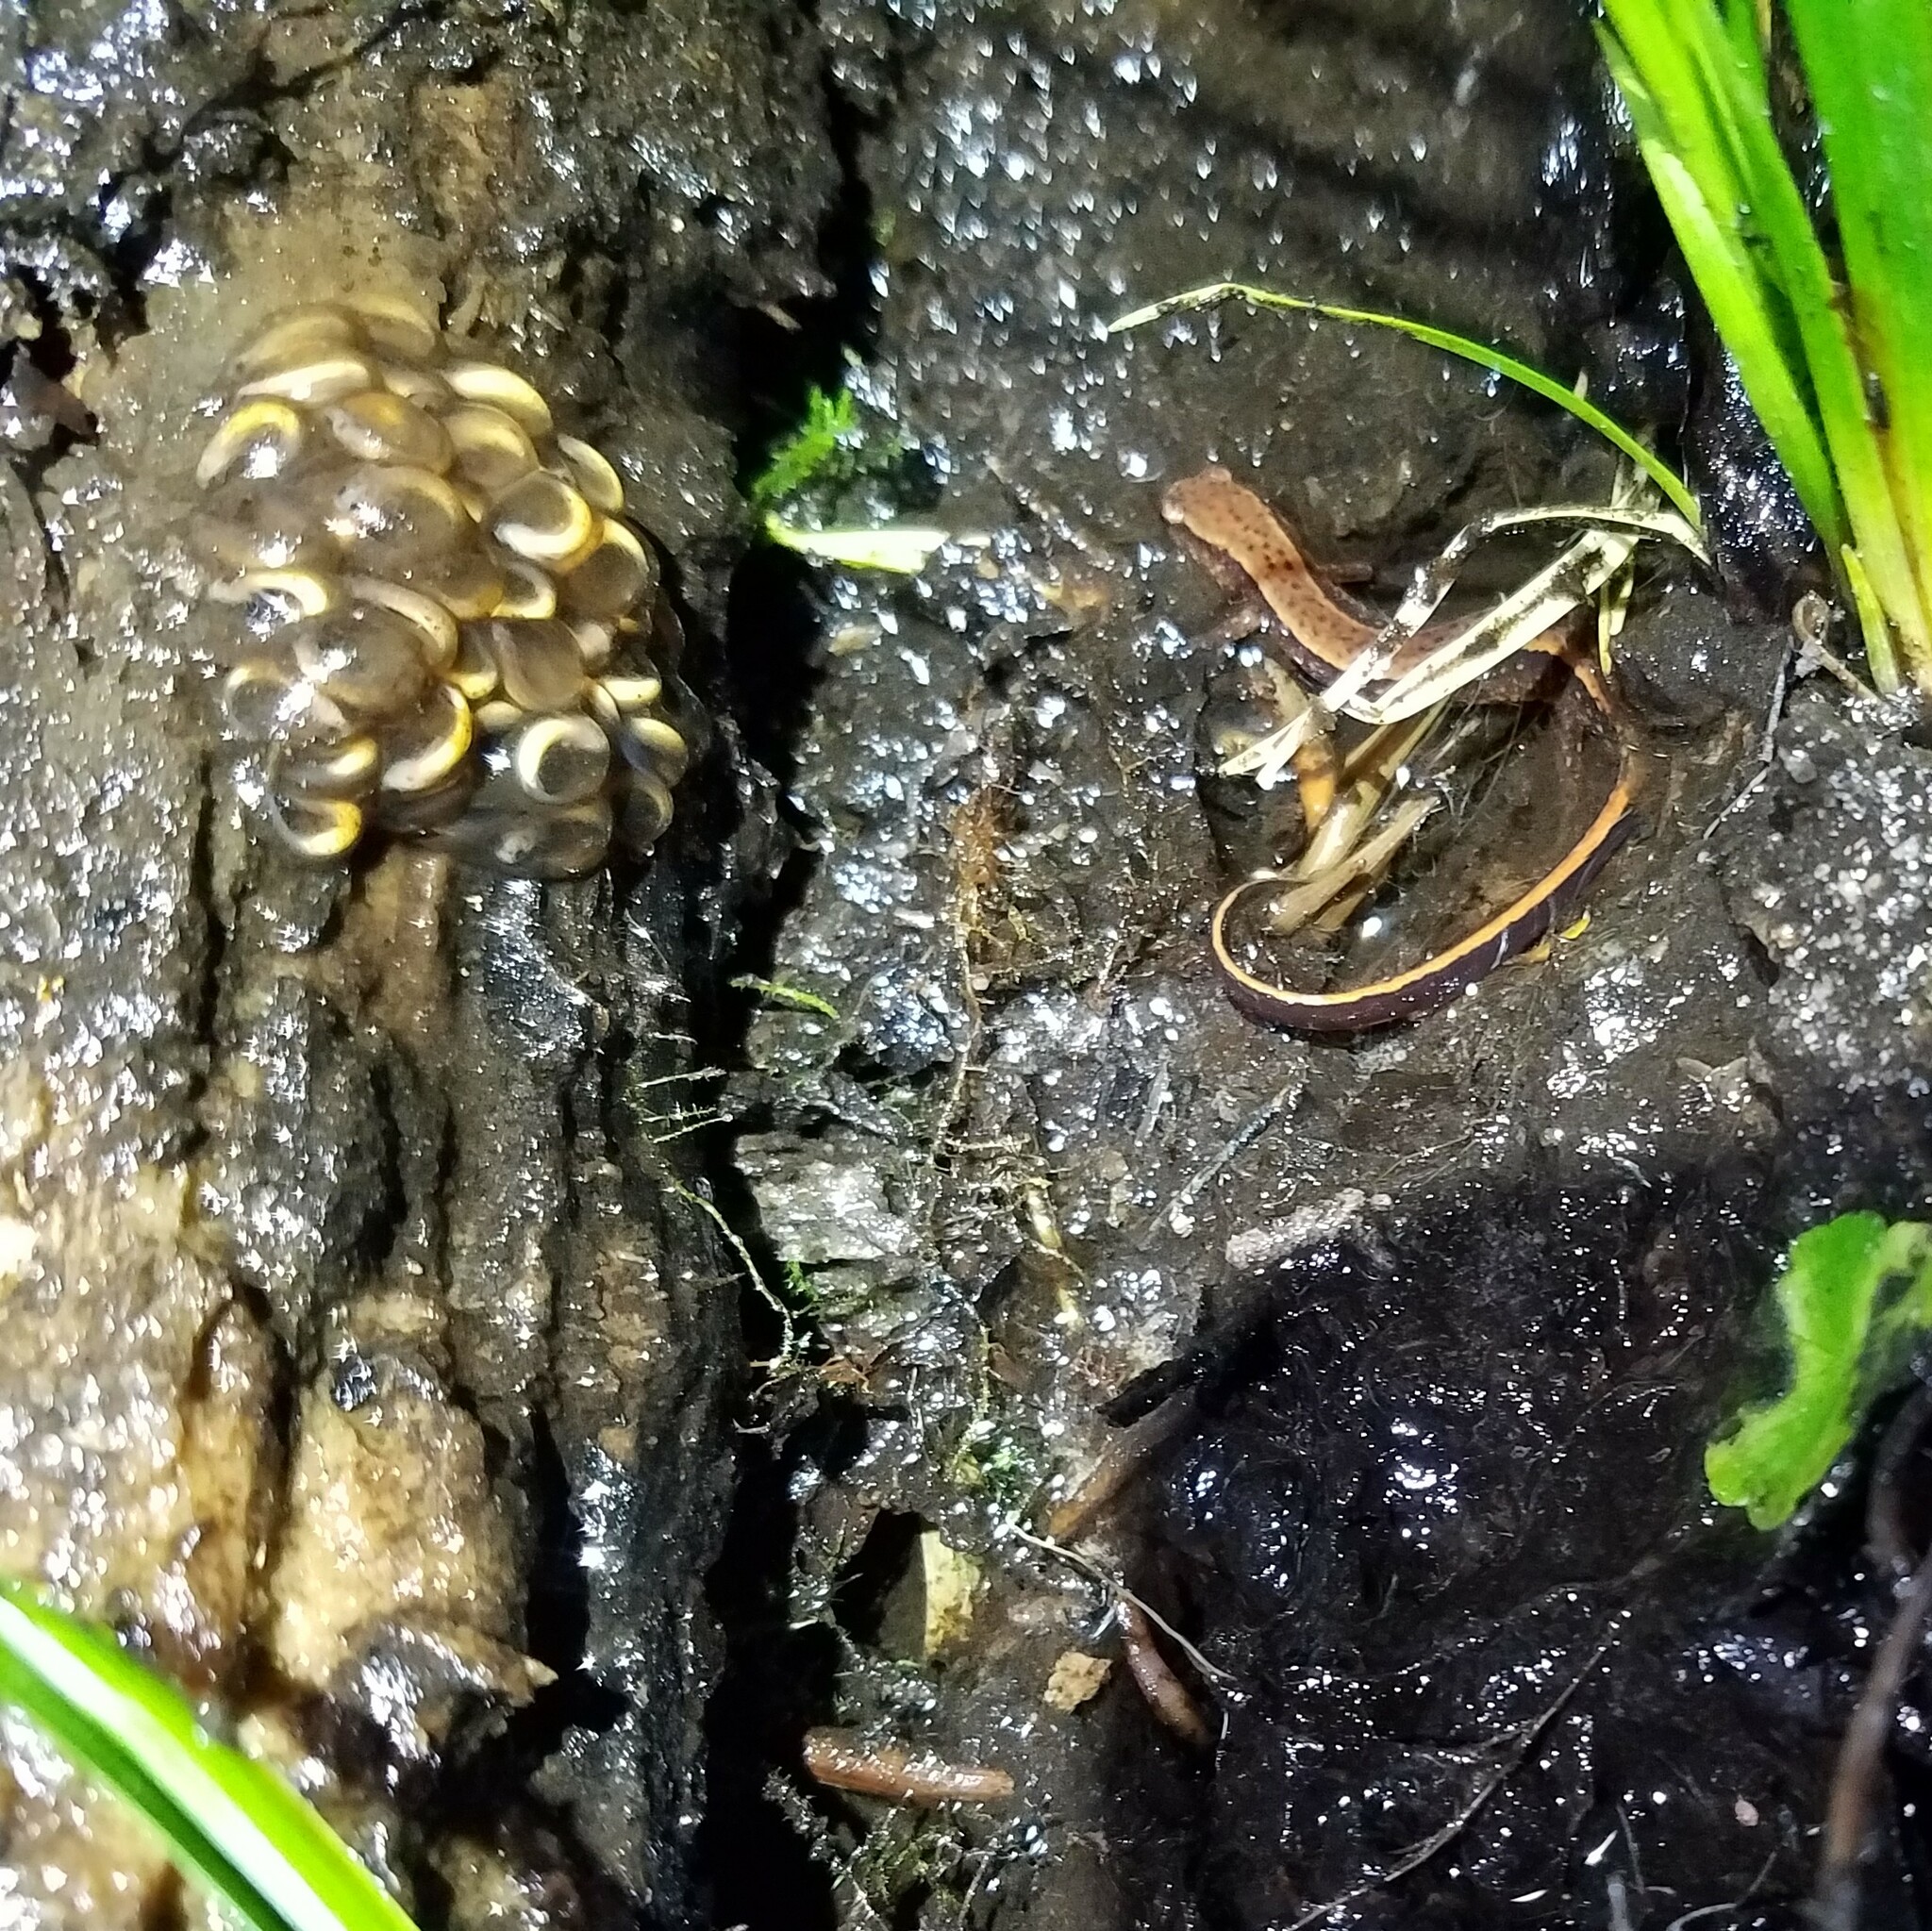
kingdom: Animalia
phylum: Chordata
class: Amphibia
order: Caudata
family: Plethodontidae
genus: Eurycea
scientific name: Eurycea cirrigera
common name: Southern two-lined salamander
